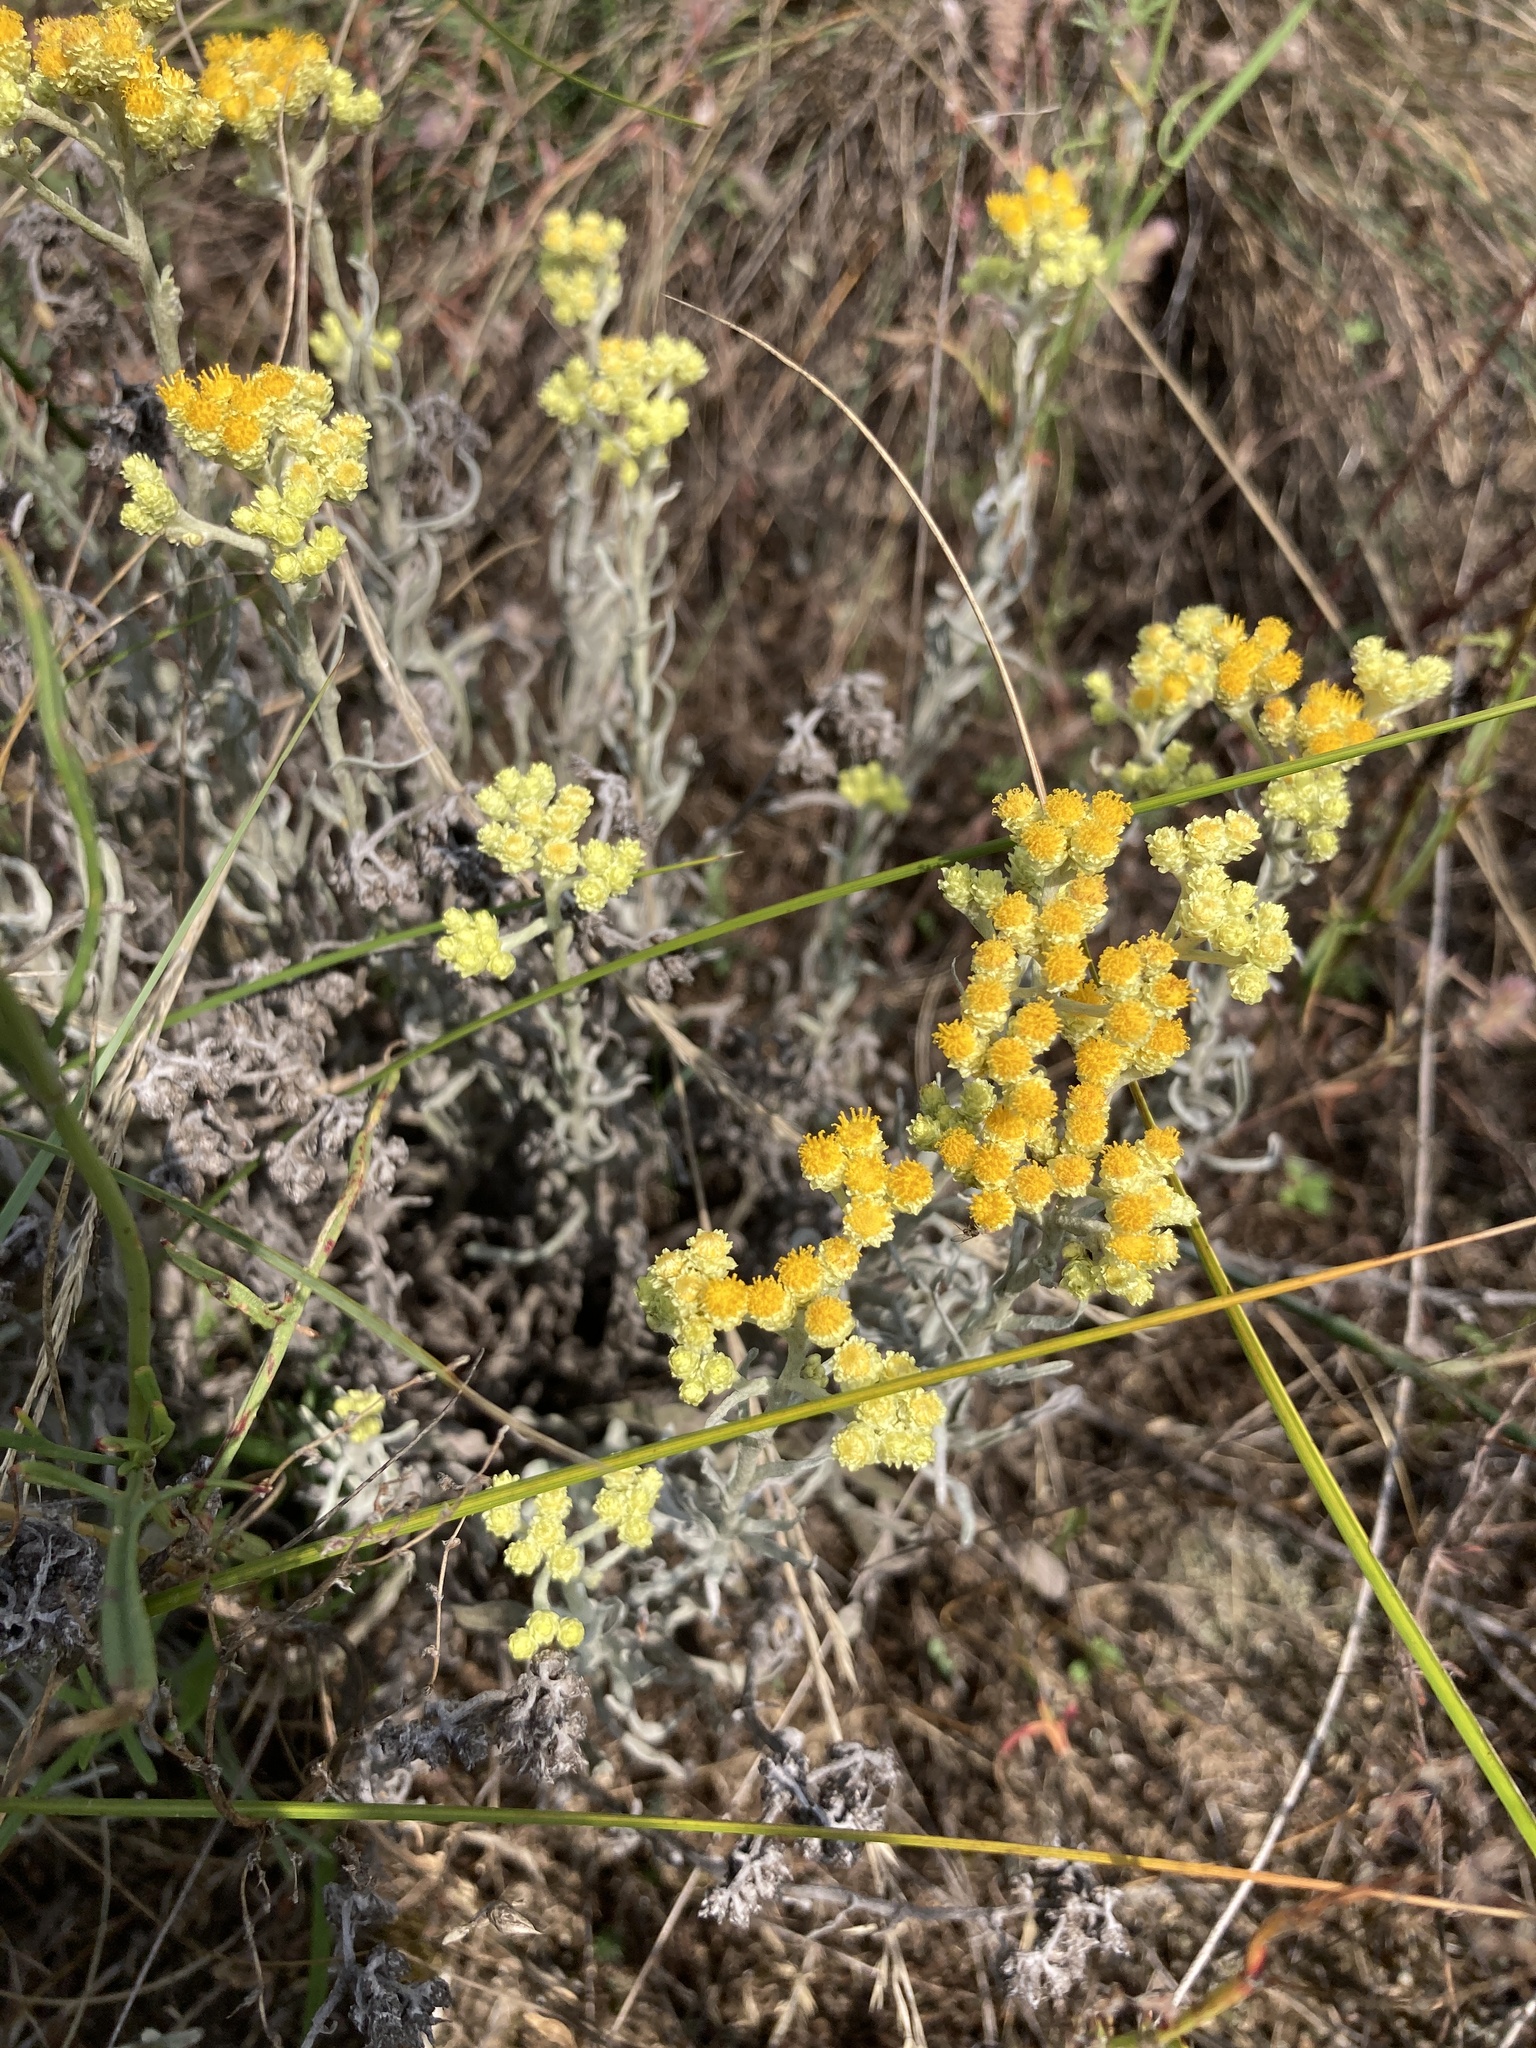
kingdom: Plantae
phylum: Tracheophyta
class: Magnoliopsida
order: Asterales
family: Asteraceae
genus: Helichrysum
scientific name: Helichrysum arenarium
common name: Strawflower
